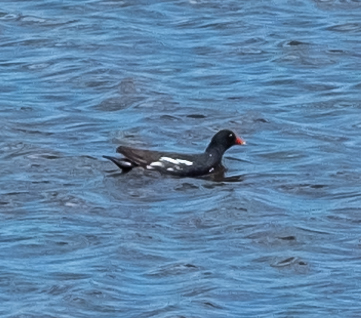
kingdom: Animalia
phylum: Chordata
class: Aves
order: Gruiformes
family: Rallidae
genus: Gallinula
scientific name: Gallinula chloropus
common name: Common moorhen
